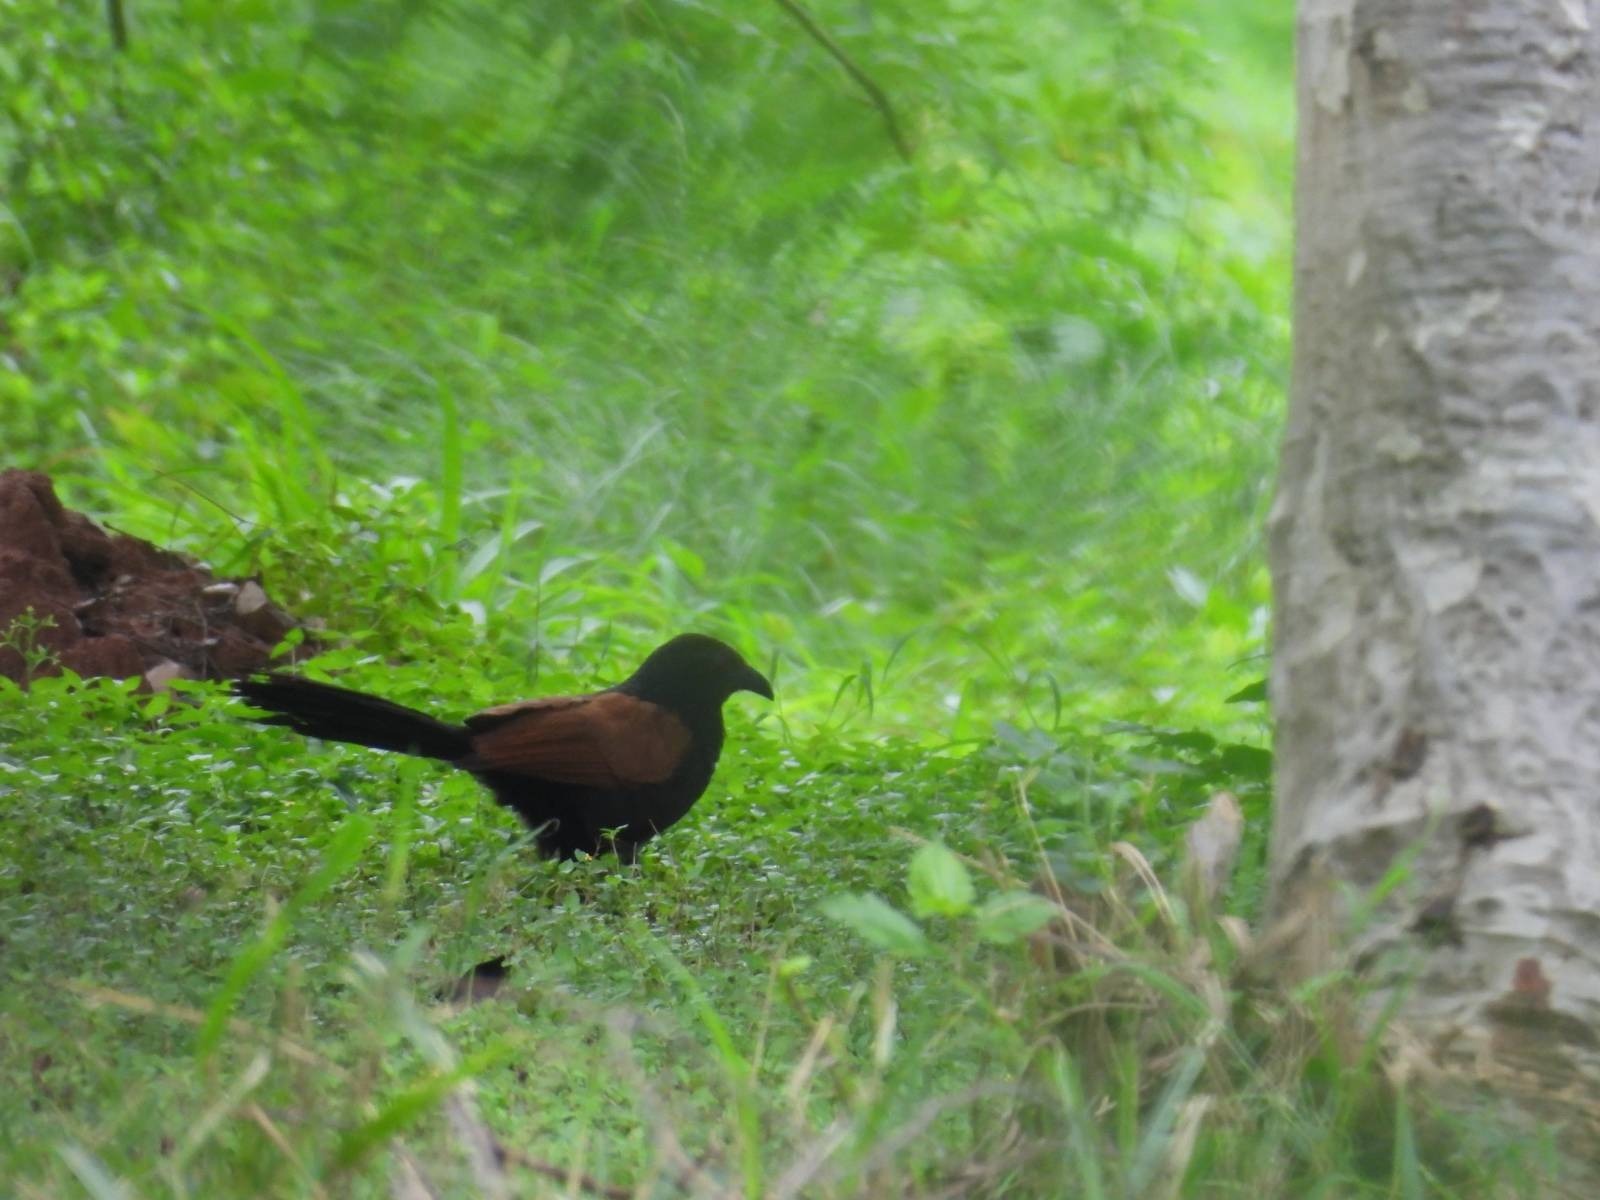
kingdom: Animalia
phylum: Chordata
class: Aves
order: Cuculiformes
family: Cuculidae
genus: Centropus
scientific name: Centropus sinensis
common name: Greater coucal
